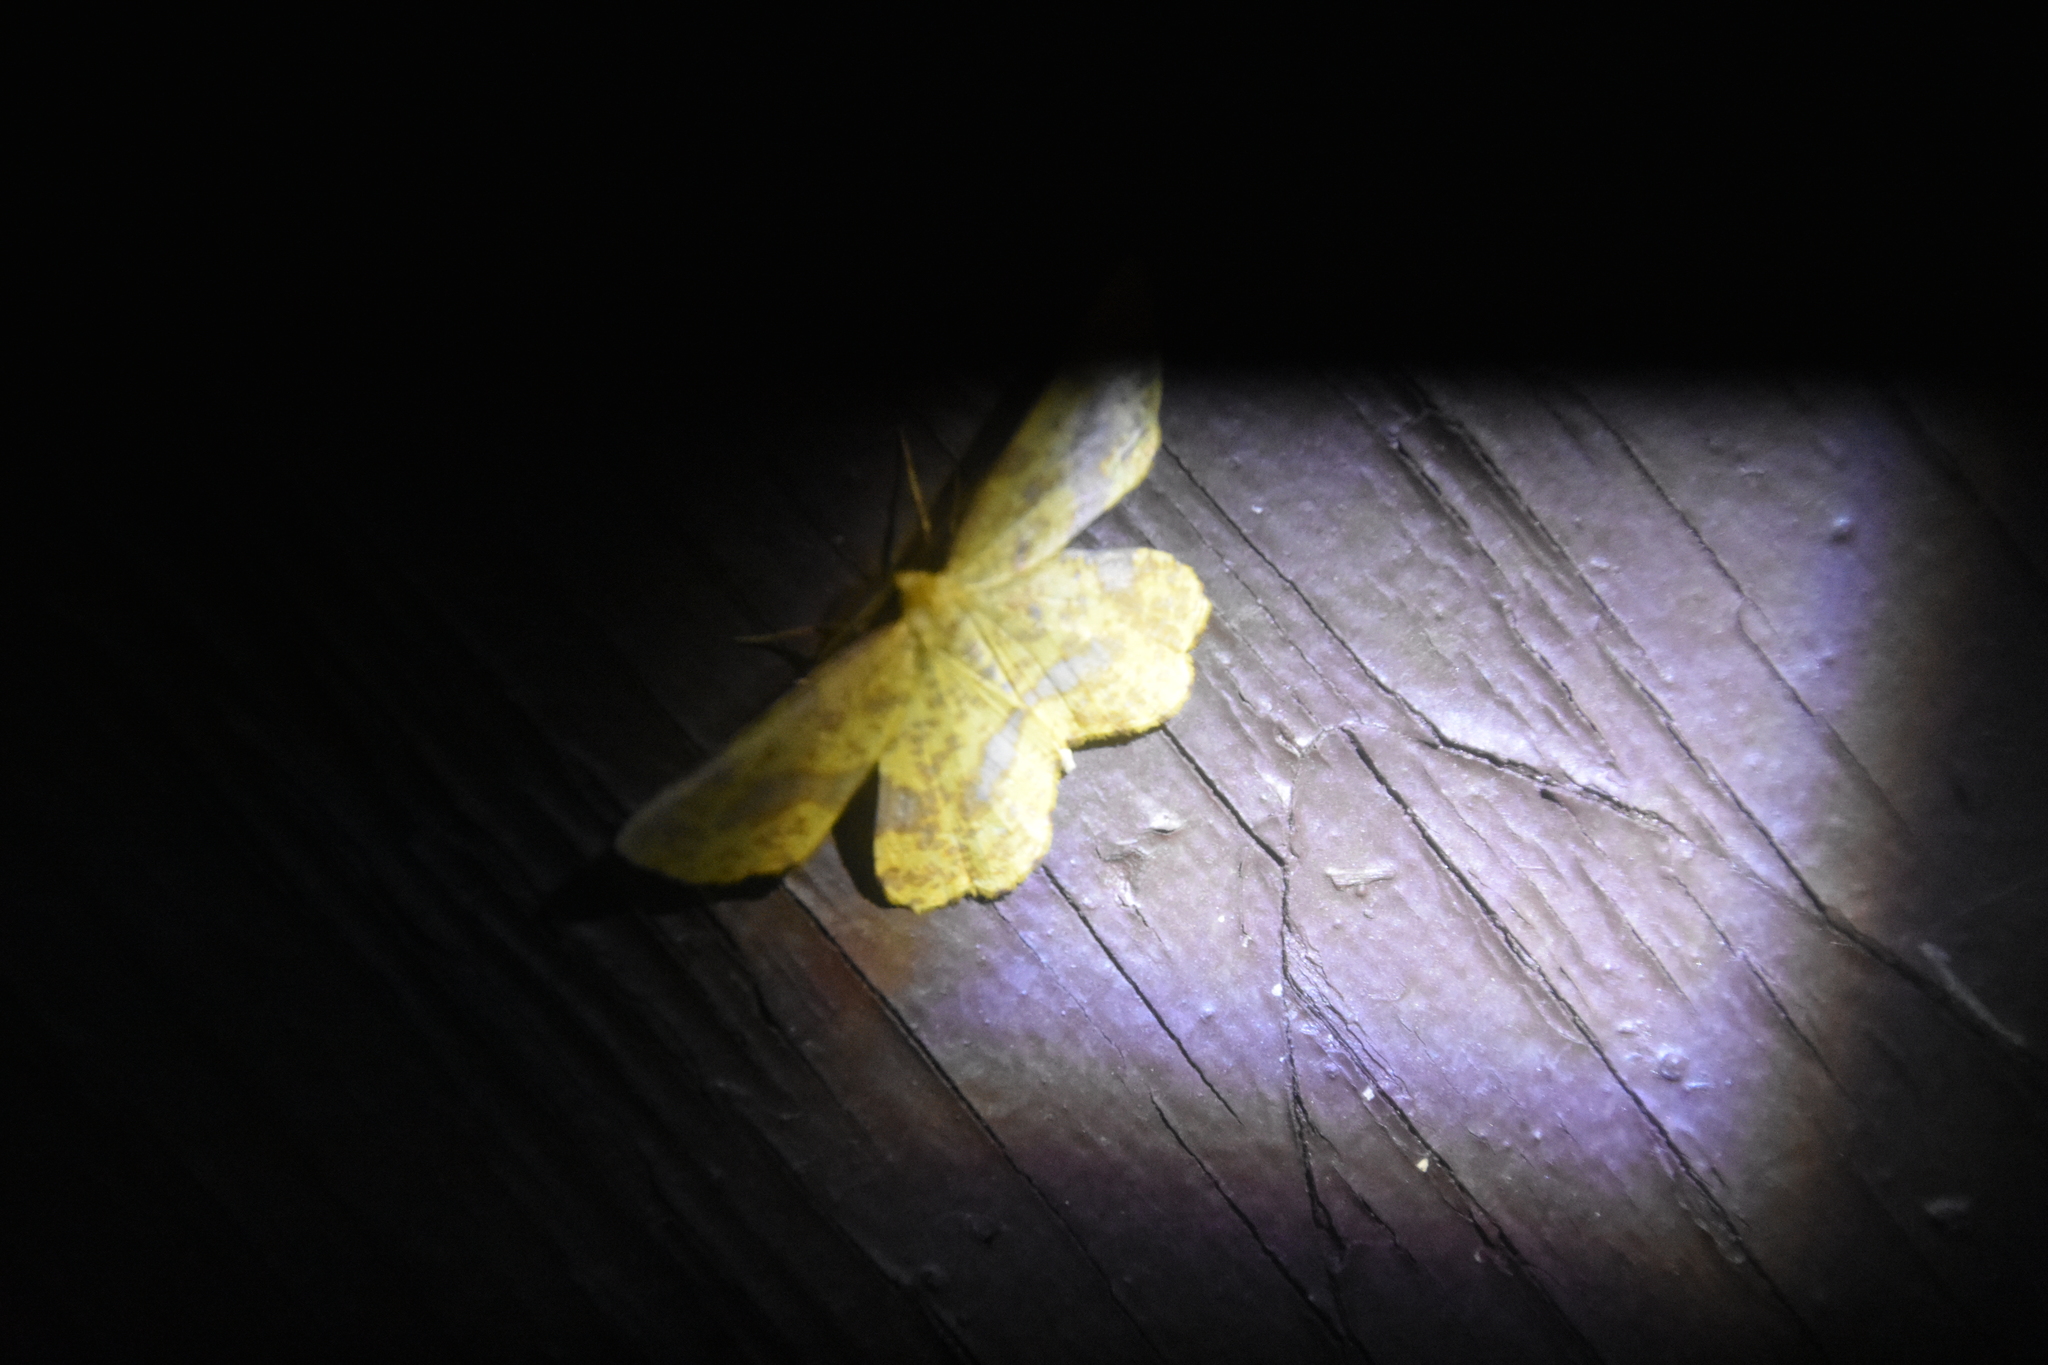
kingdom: Animalia
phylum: Arthropoda
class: Insecta
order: Lepidoptera
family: Geometridae
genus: Xanthotype
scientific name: Xanthotype
